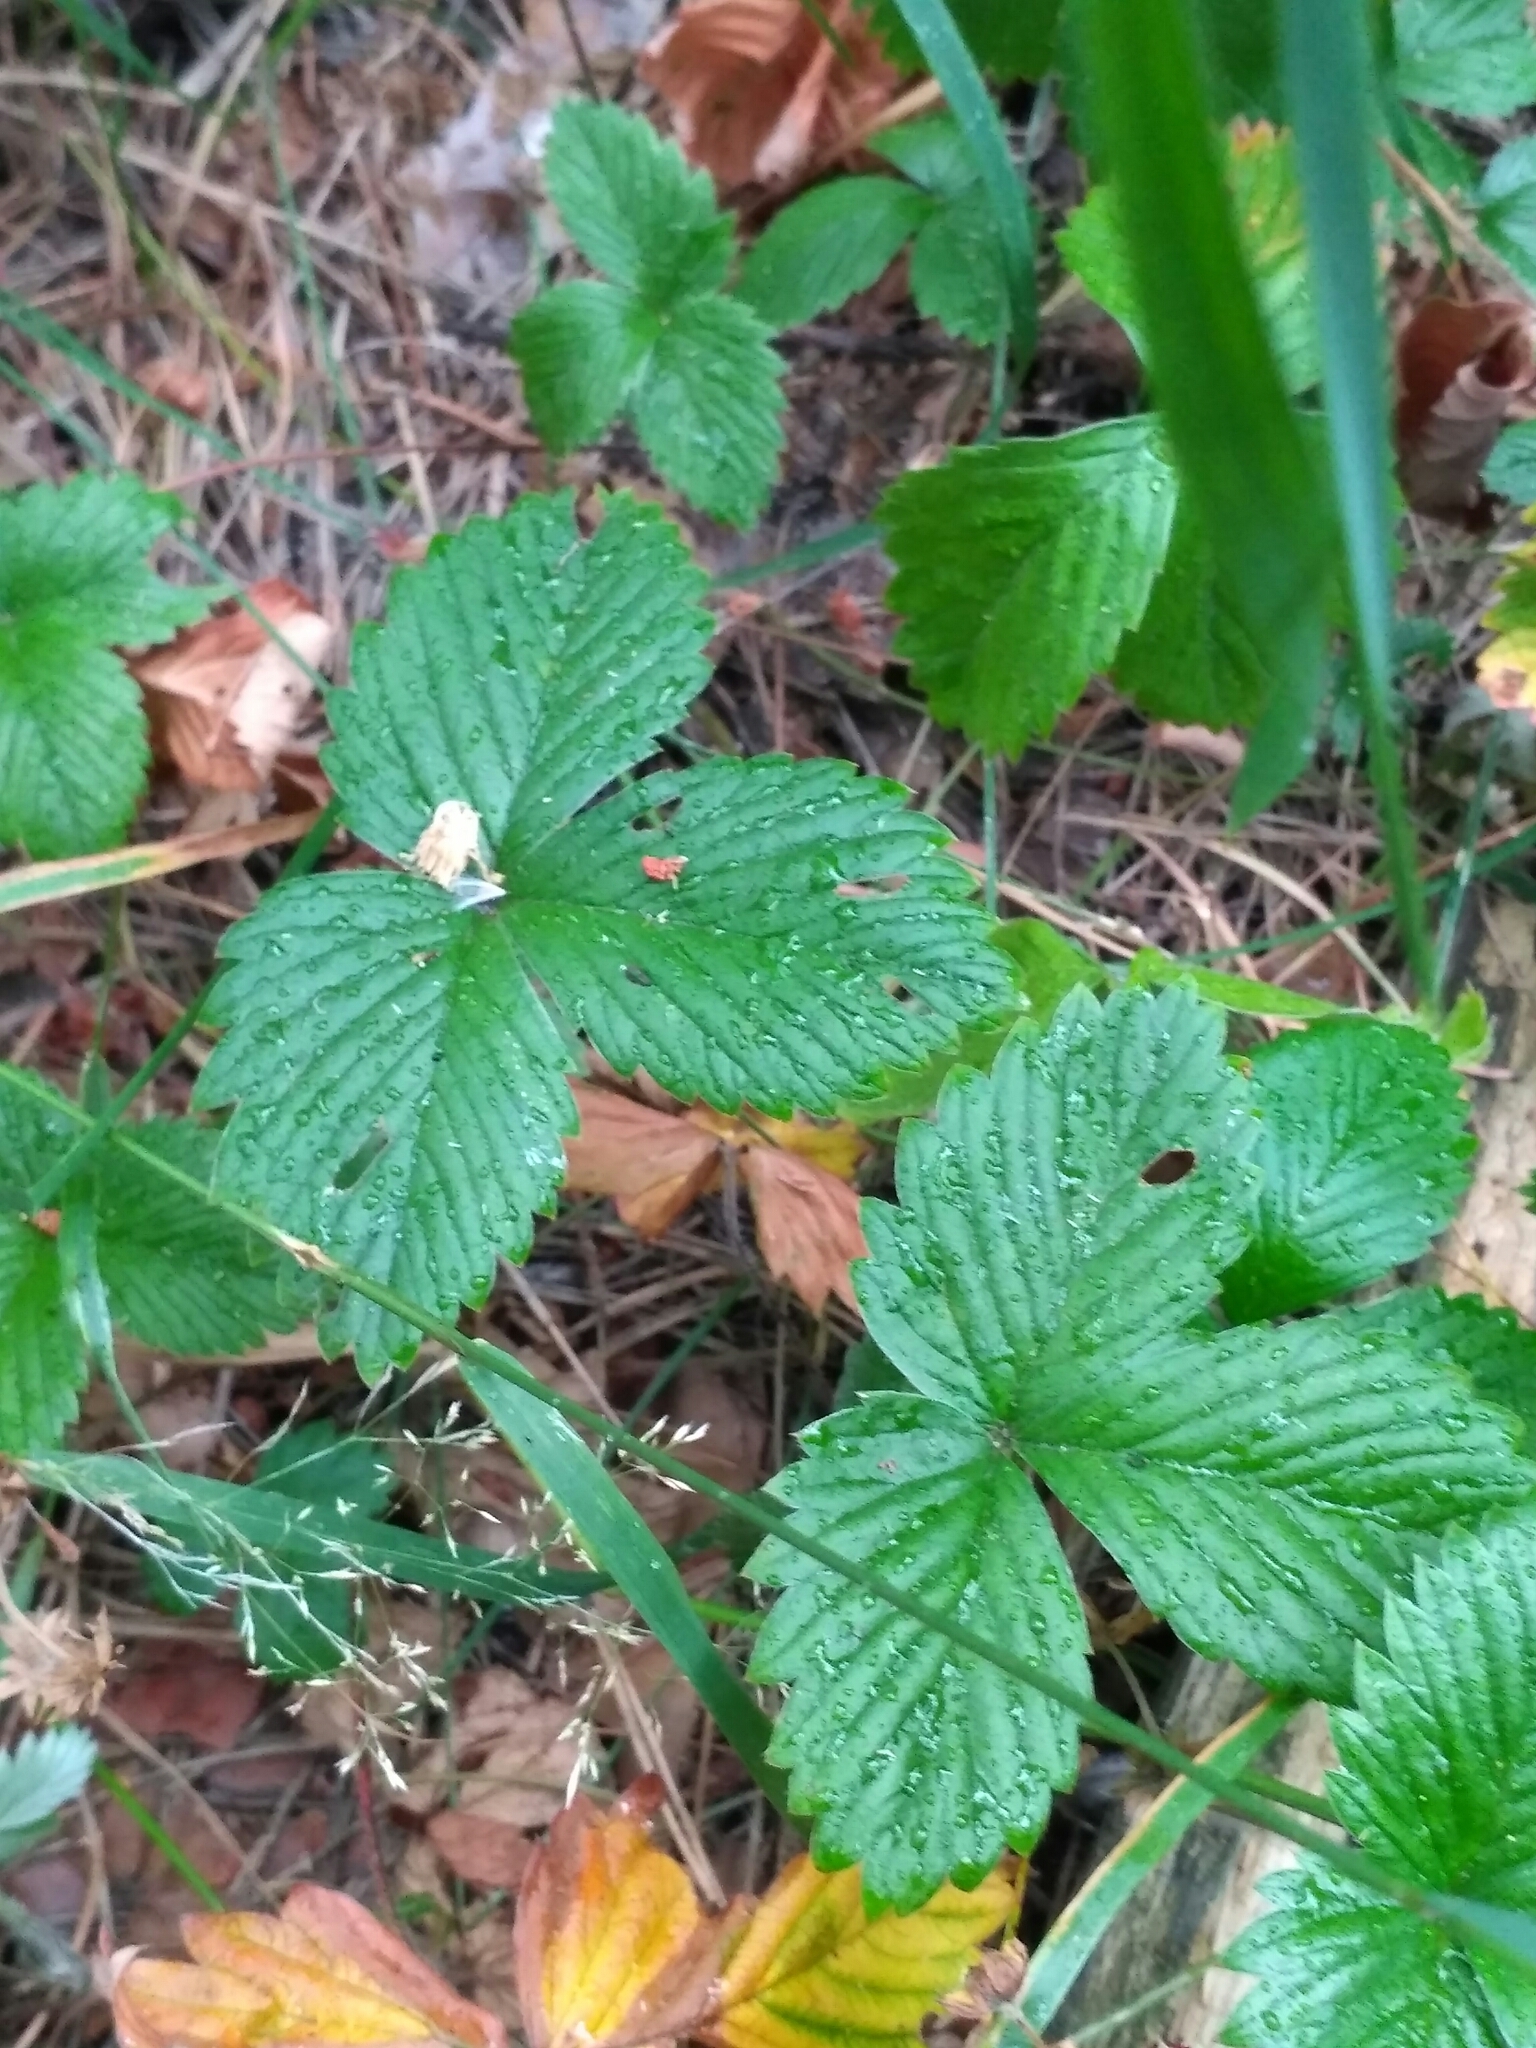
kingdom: Plantae
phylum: Tracheophyta
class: Magnoliopsida
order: Rosales
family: Rosaceae
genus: Fragaria
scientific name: Fragaria vesca
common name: Wild strawberry
